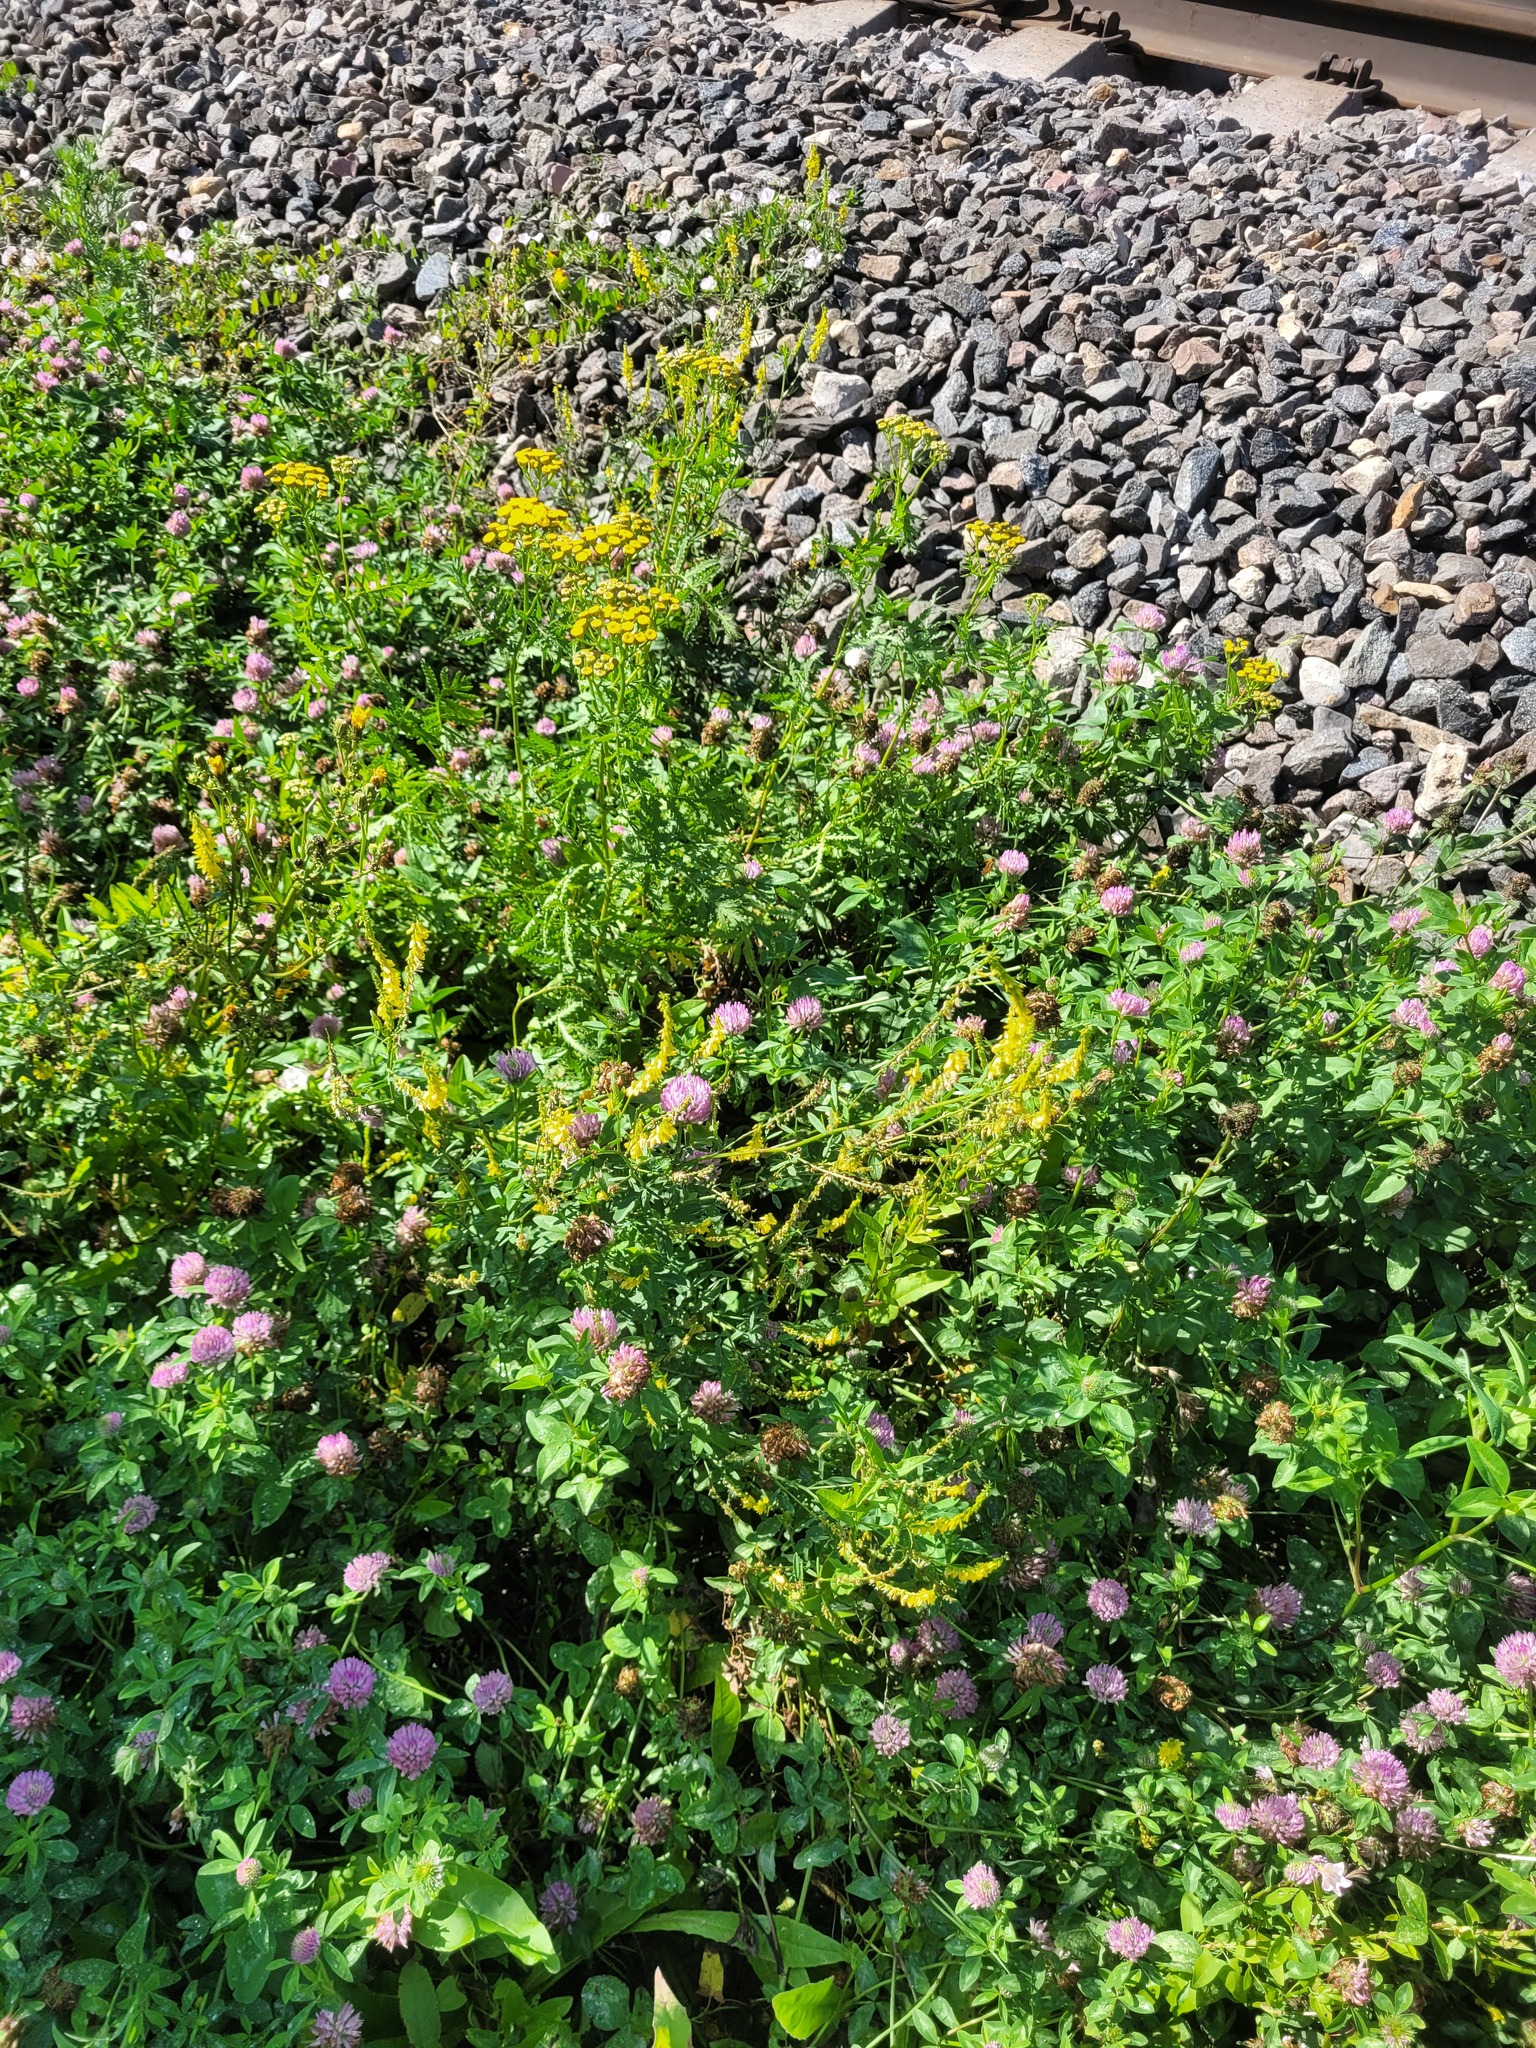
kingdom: Plantae
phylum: Tracheophyta
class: Magnoliopsida
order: Fabales
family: Fabaceae
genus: Melilotus
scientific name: Melilotus officinalis
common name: Sweetclover
